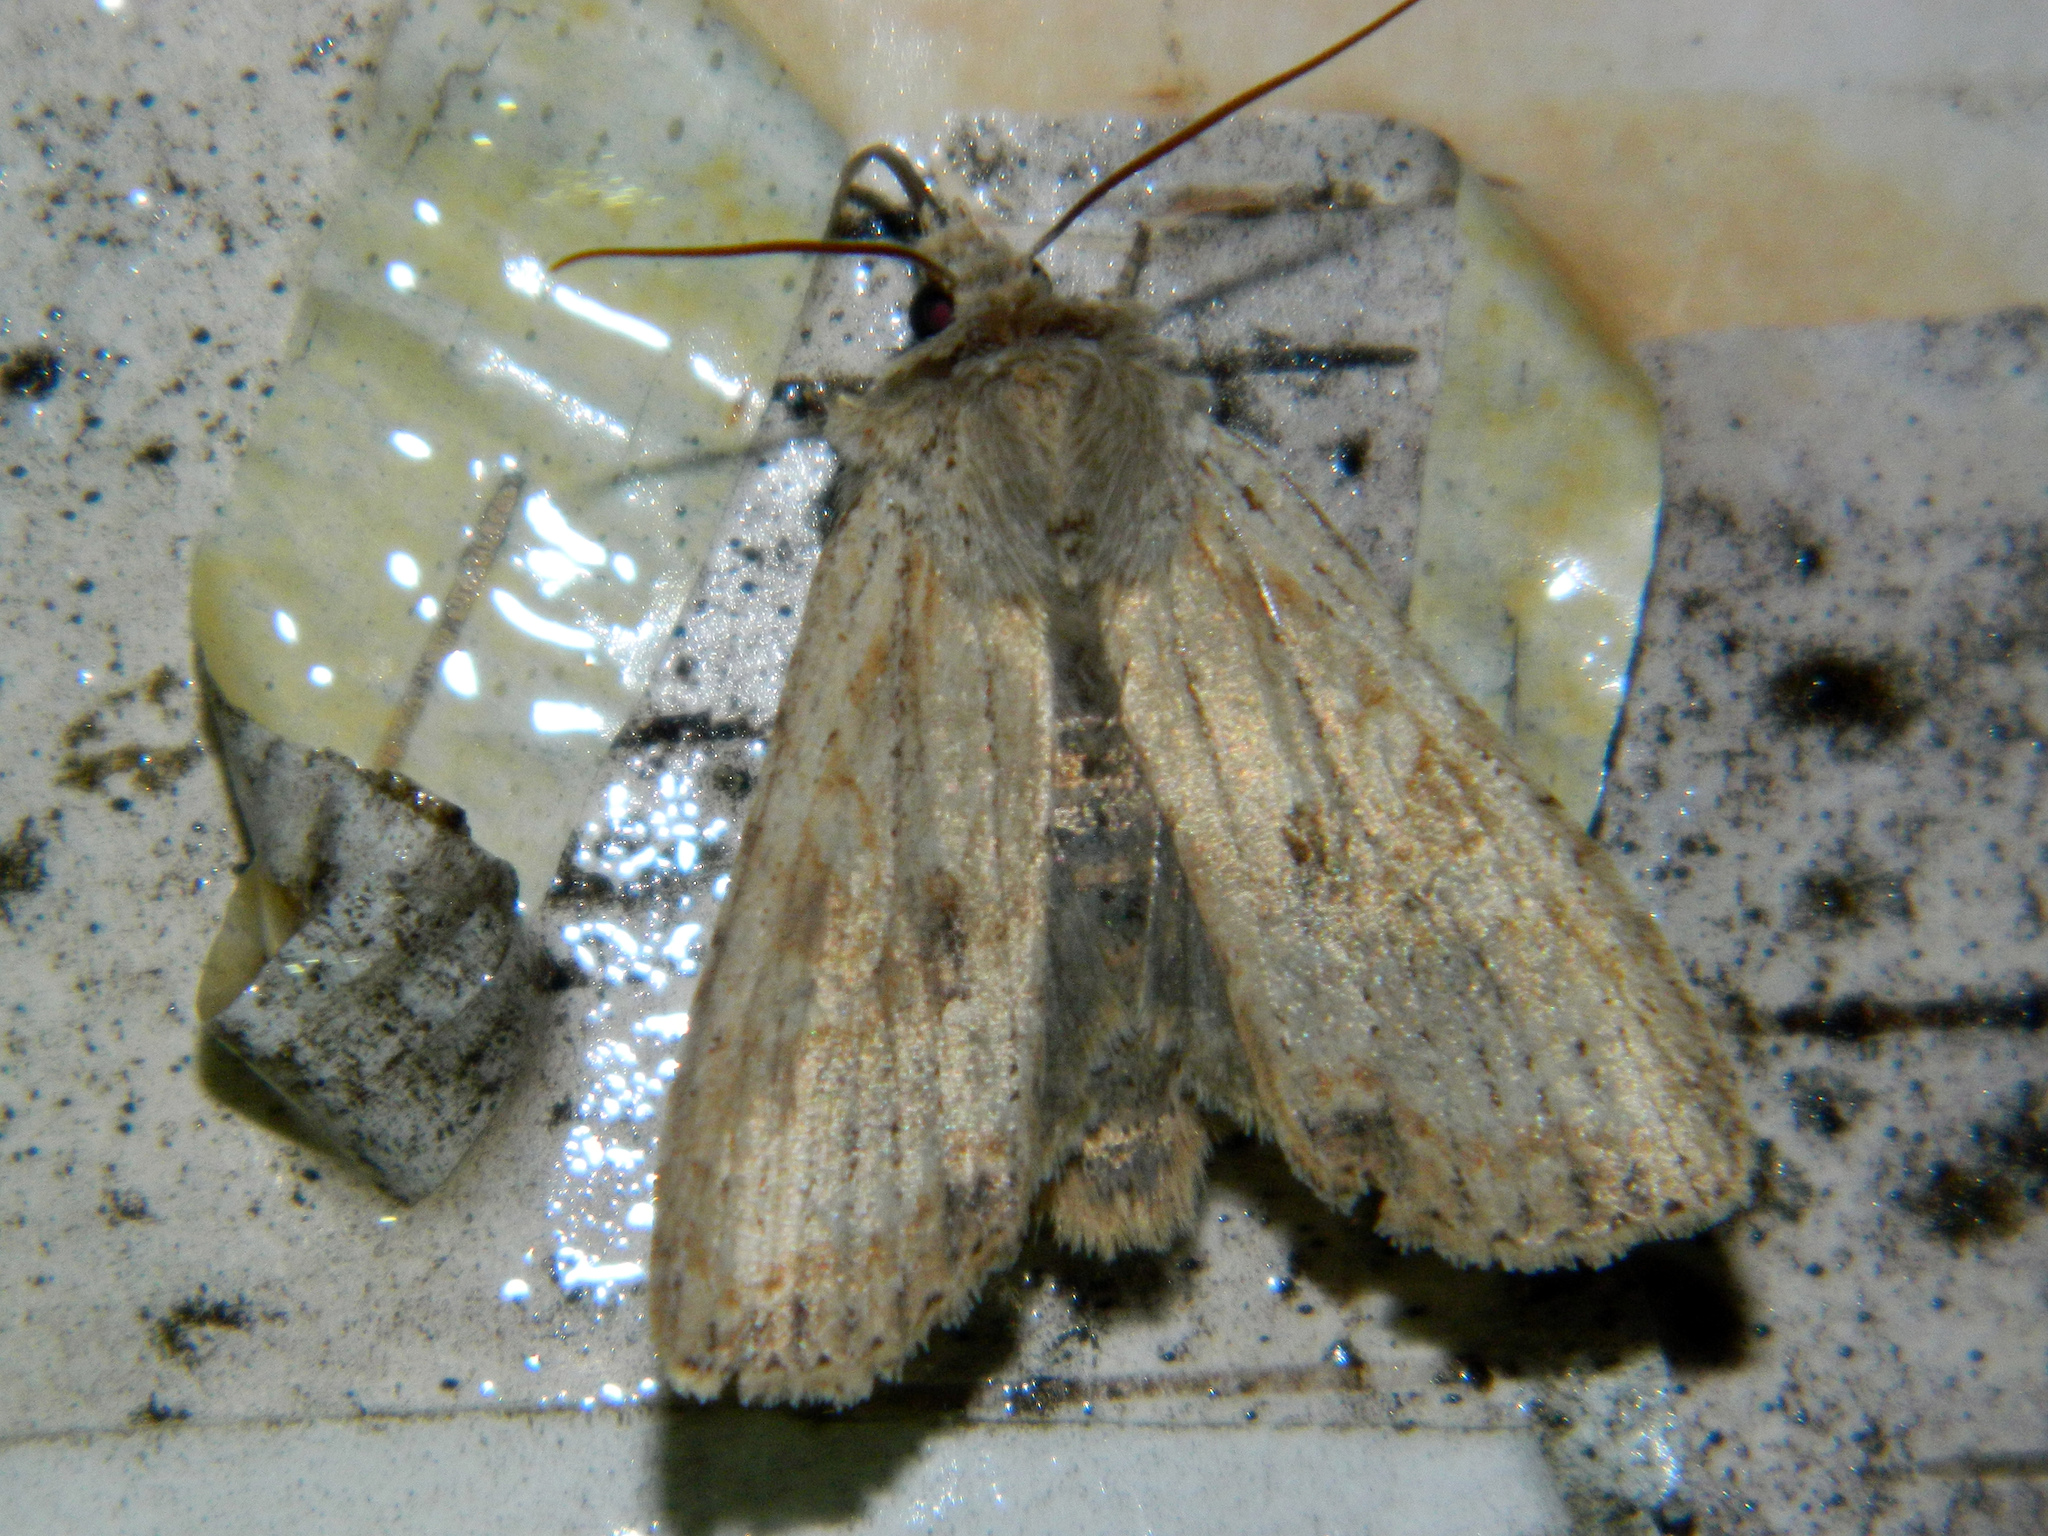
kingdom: Animalia
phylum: Arthropoda
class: Insecta
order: Lepidoptera
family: Noctuidae
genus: Lithophane
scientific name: Lithophane innominata
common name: Nameless pinion moth
